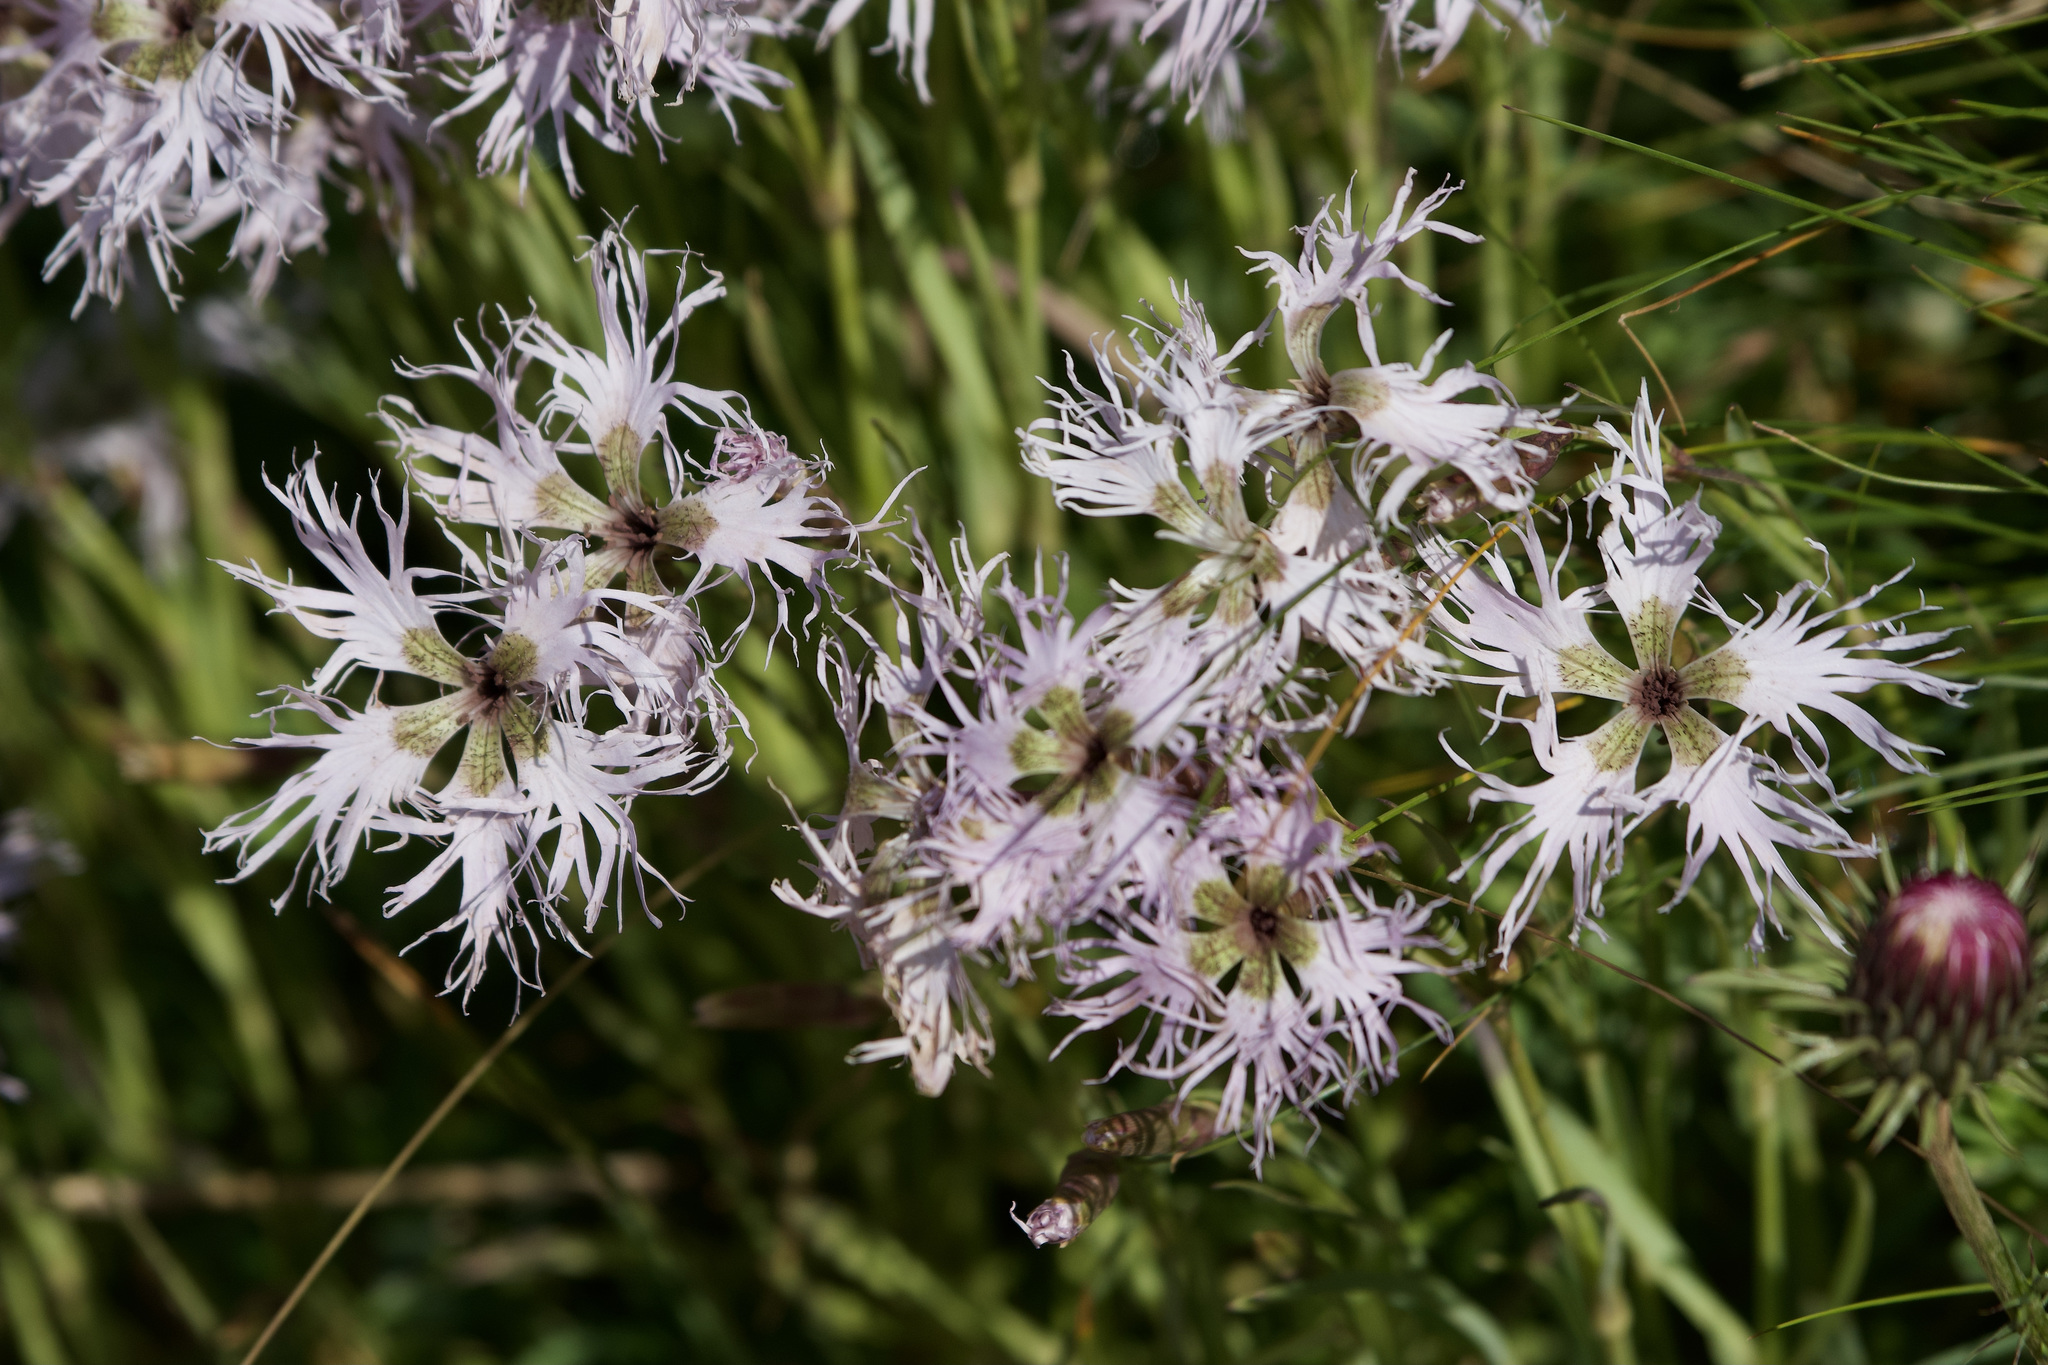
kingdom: Plantae
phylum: Tracheophyta
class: Magnoliopsida
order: Caryophyllales
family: Caryophyllaceae
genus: Dianthus
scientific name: Dianthus superbus
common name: Fringed pink
